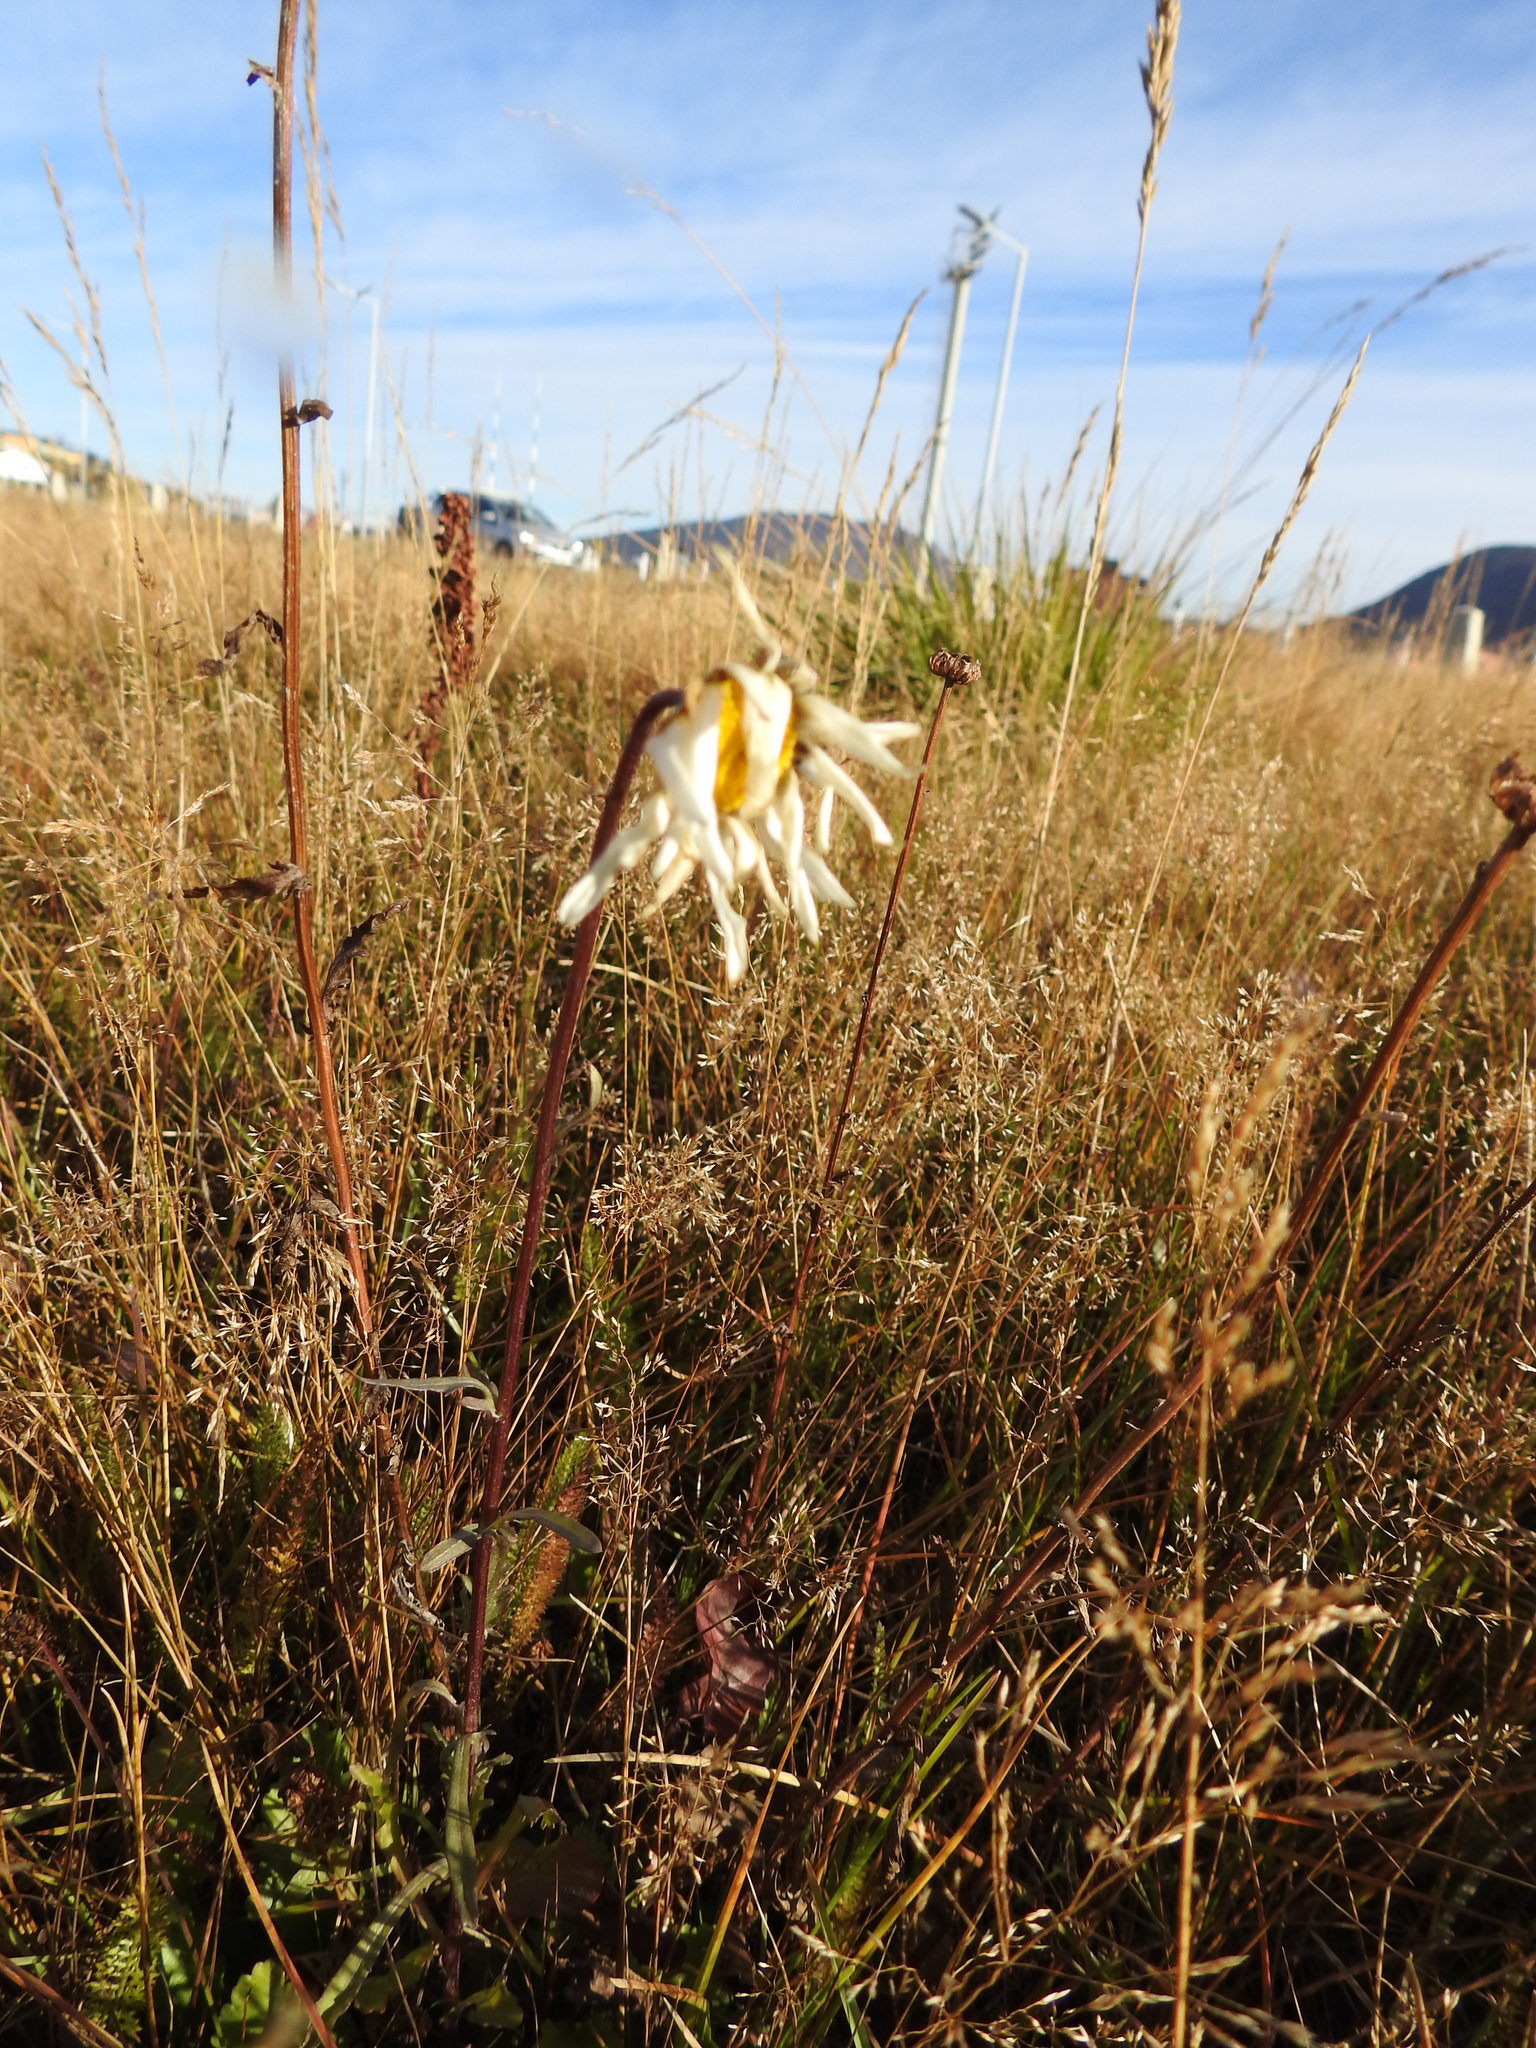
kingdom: Plantae
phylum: Tracheophyta
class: Magnoliopsida
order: Asterales
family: Asteraceae
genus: Leucanthemum
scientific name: Leucanthemum vulgare
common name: Oxeye daisy
